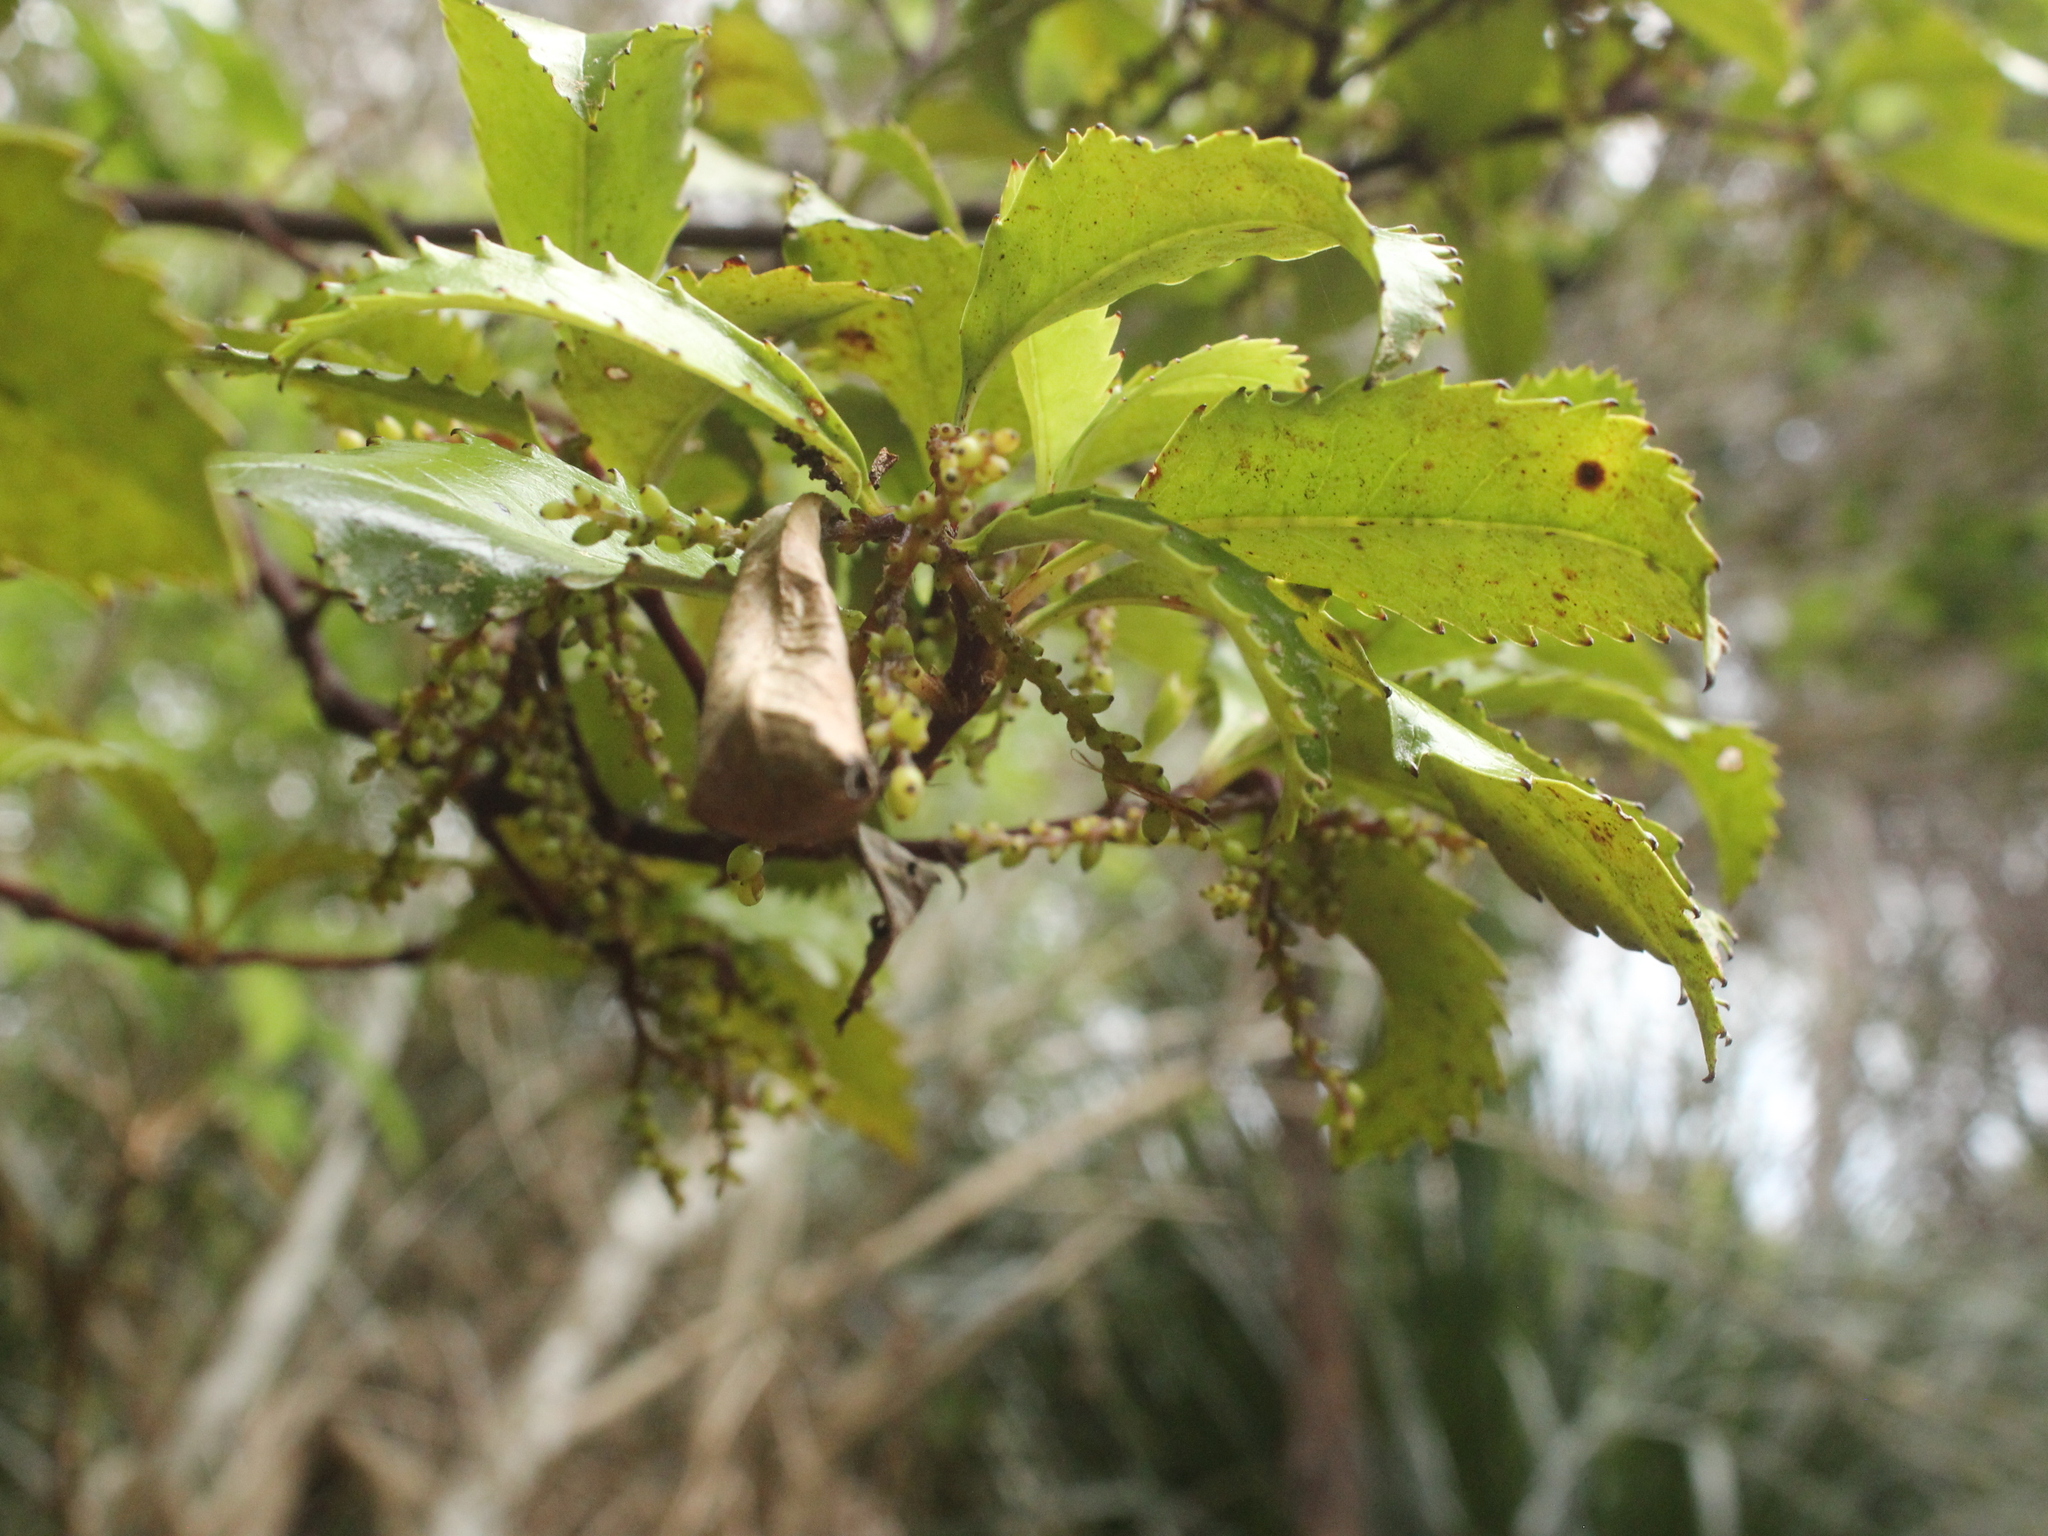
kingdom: Plantae
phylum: Tracheophyta
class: Magnoliopsida
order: Chloranthales
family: Chloranthaceae
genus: Ascarina
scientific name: Ascarina lucida
